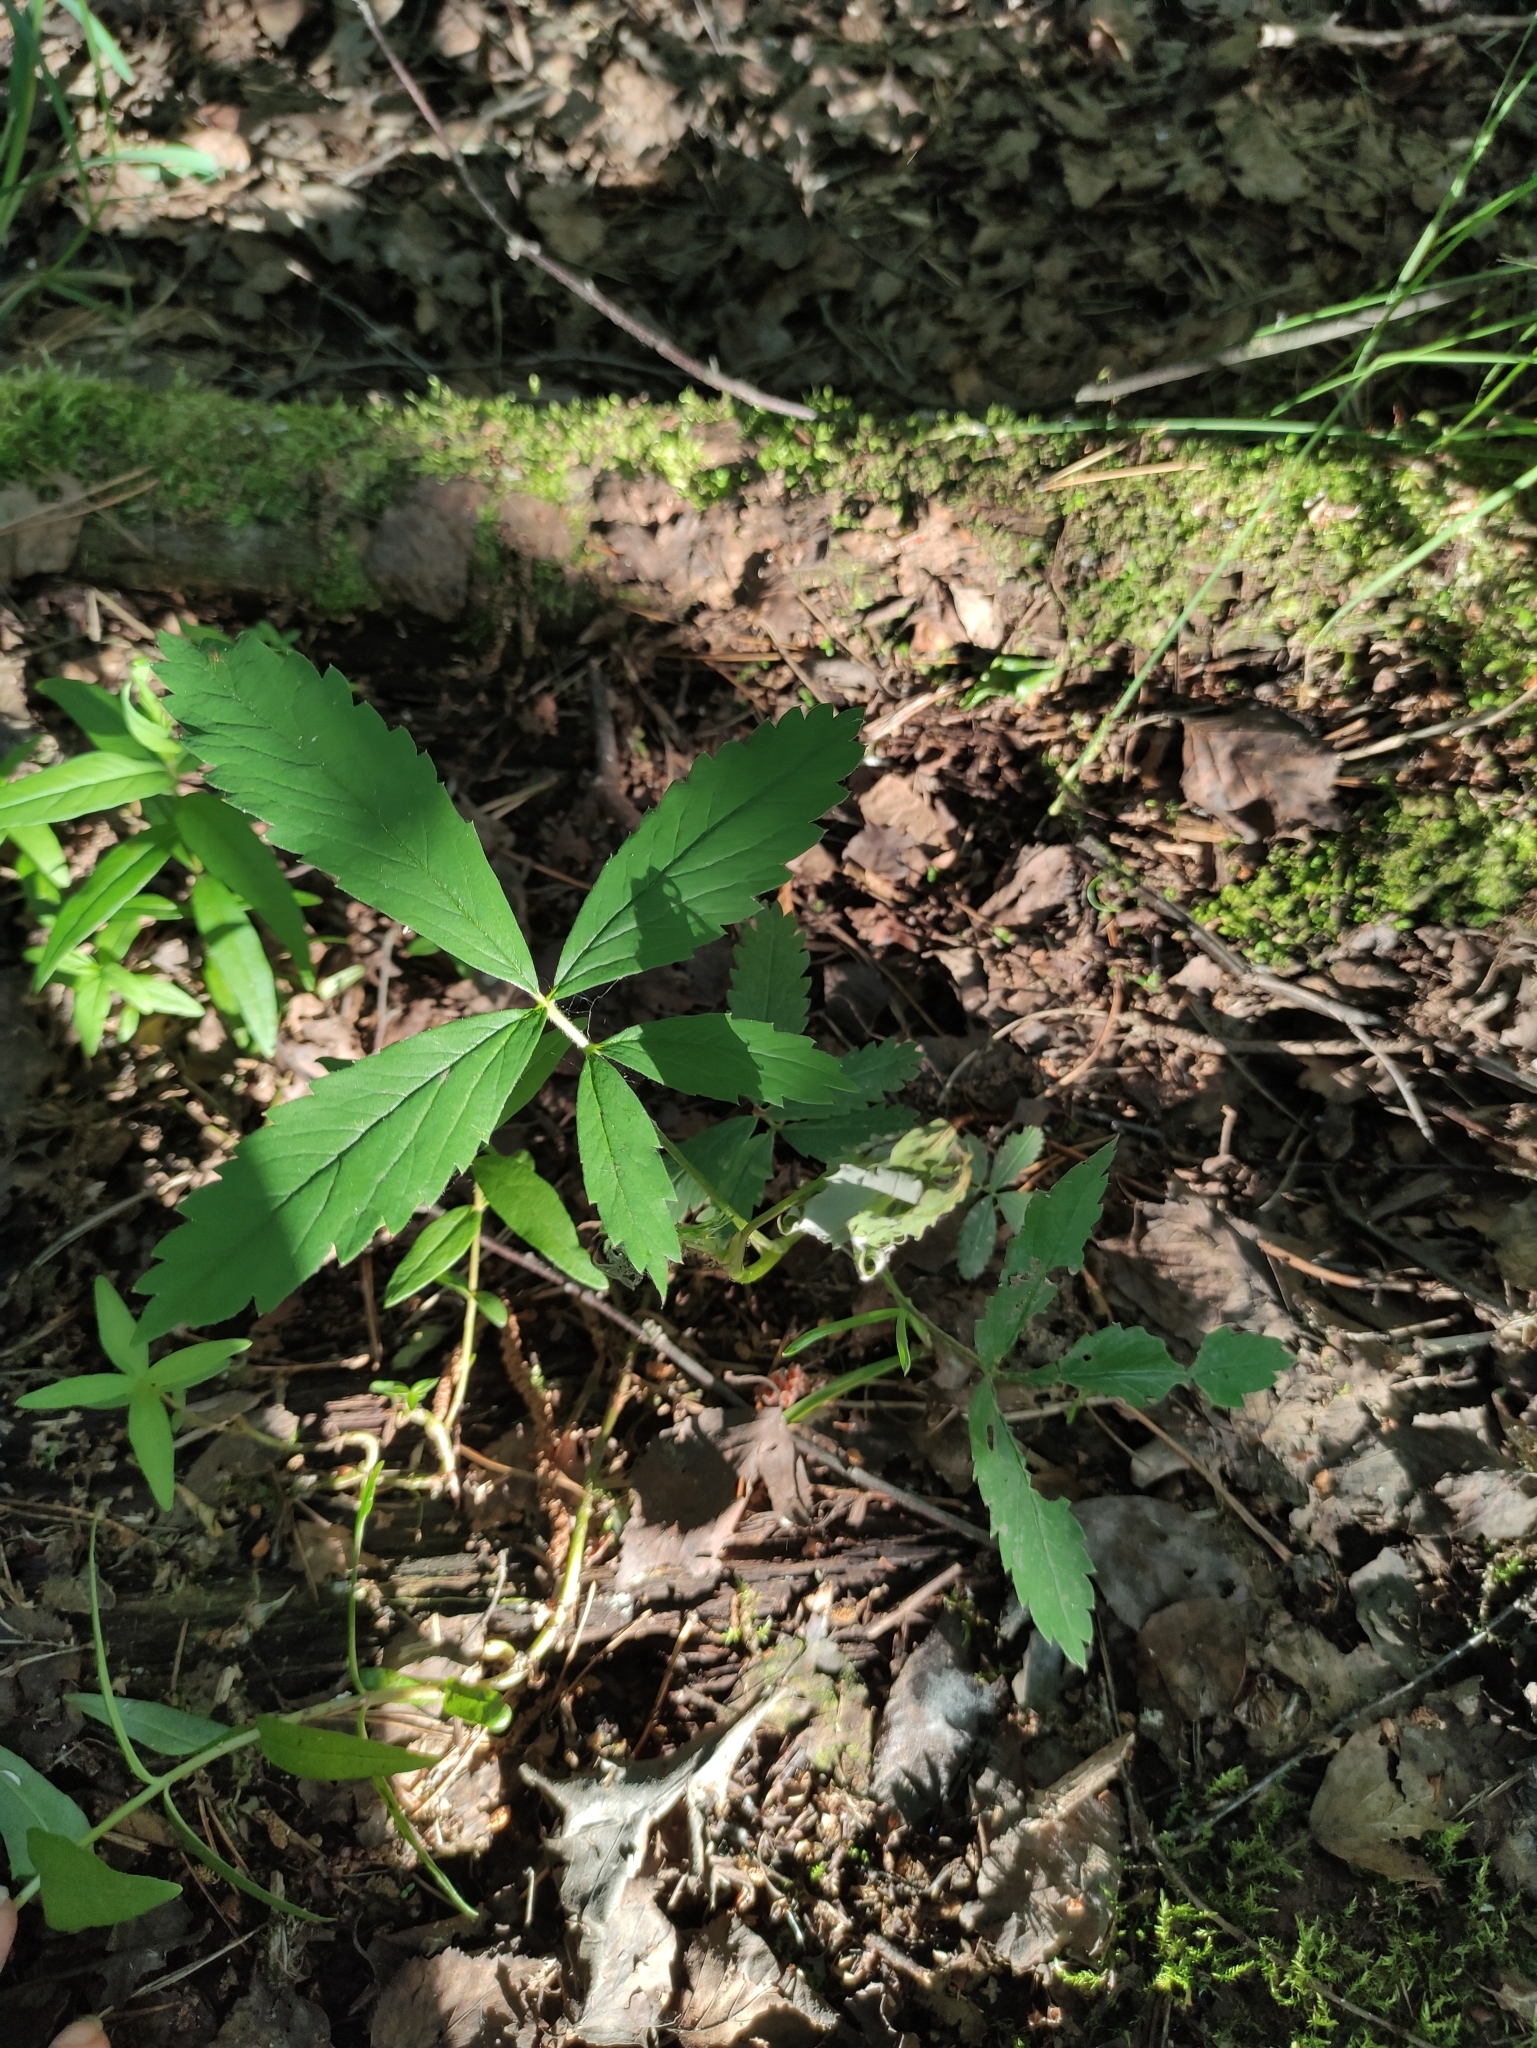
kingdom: Plantae
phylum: Tracheophyta
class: Magnoliopsida
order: Rosales
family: Rosaceae
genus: Comarum
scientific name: Comarum palustre
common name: Marsh cinquefoil
